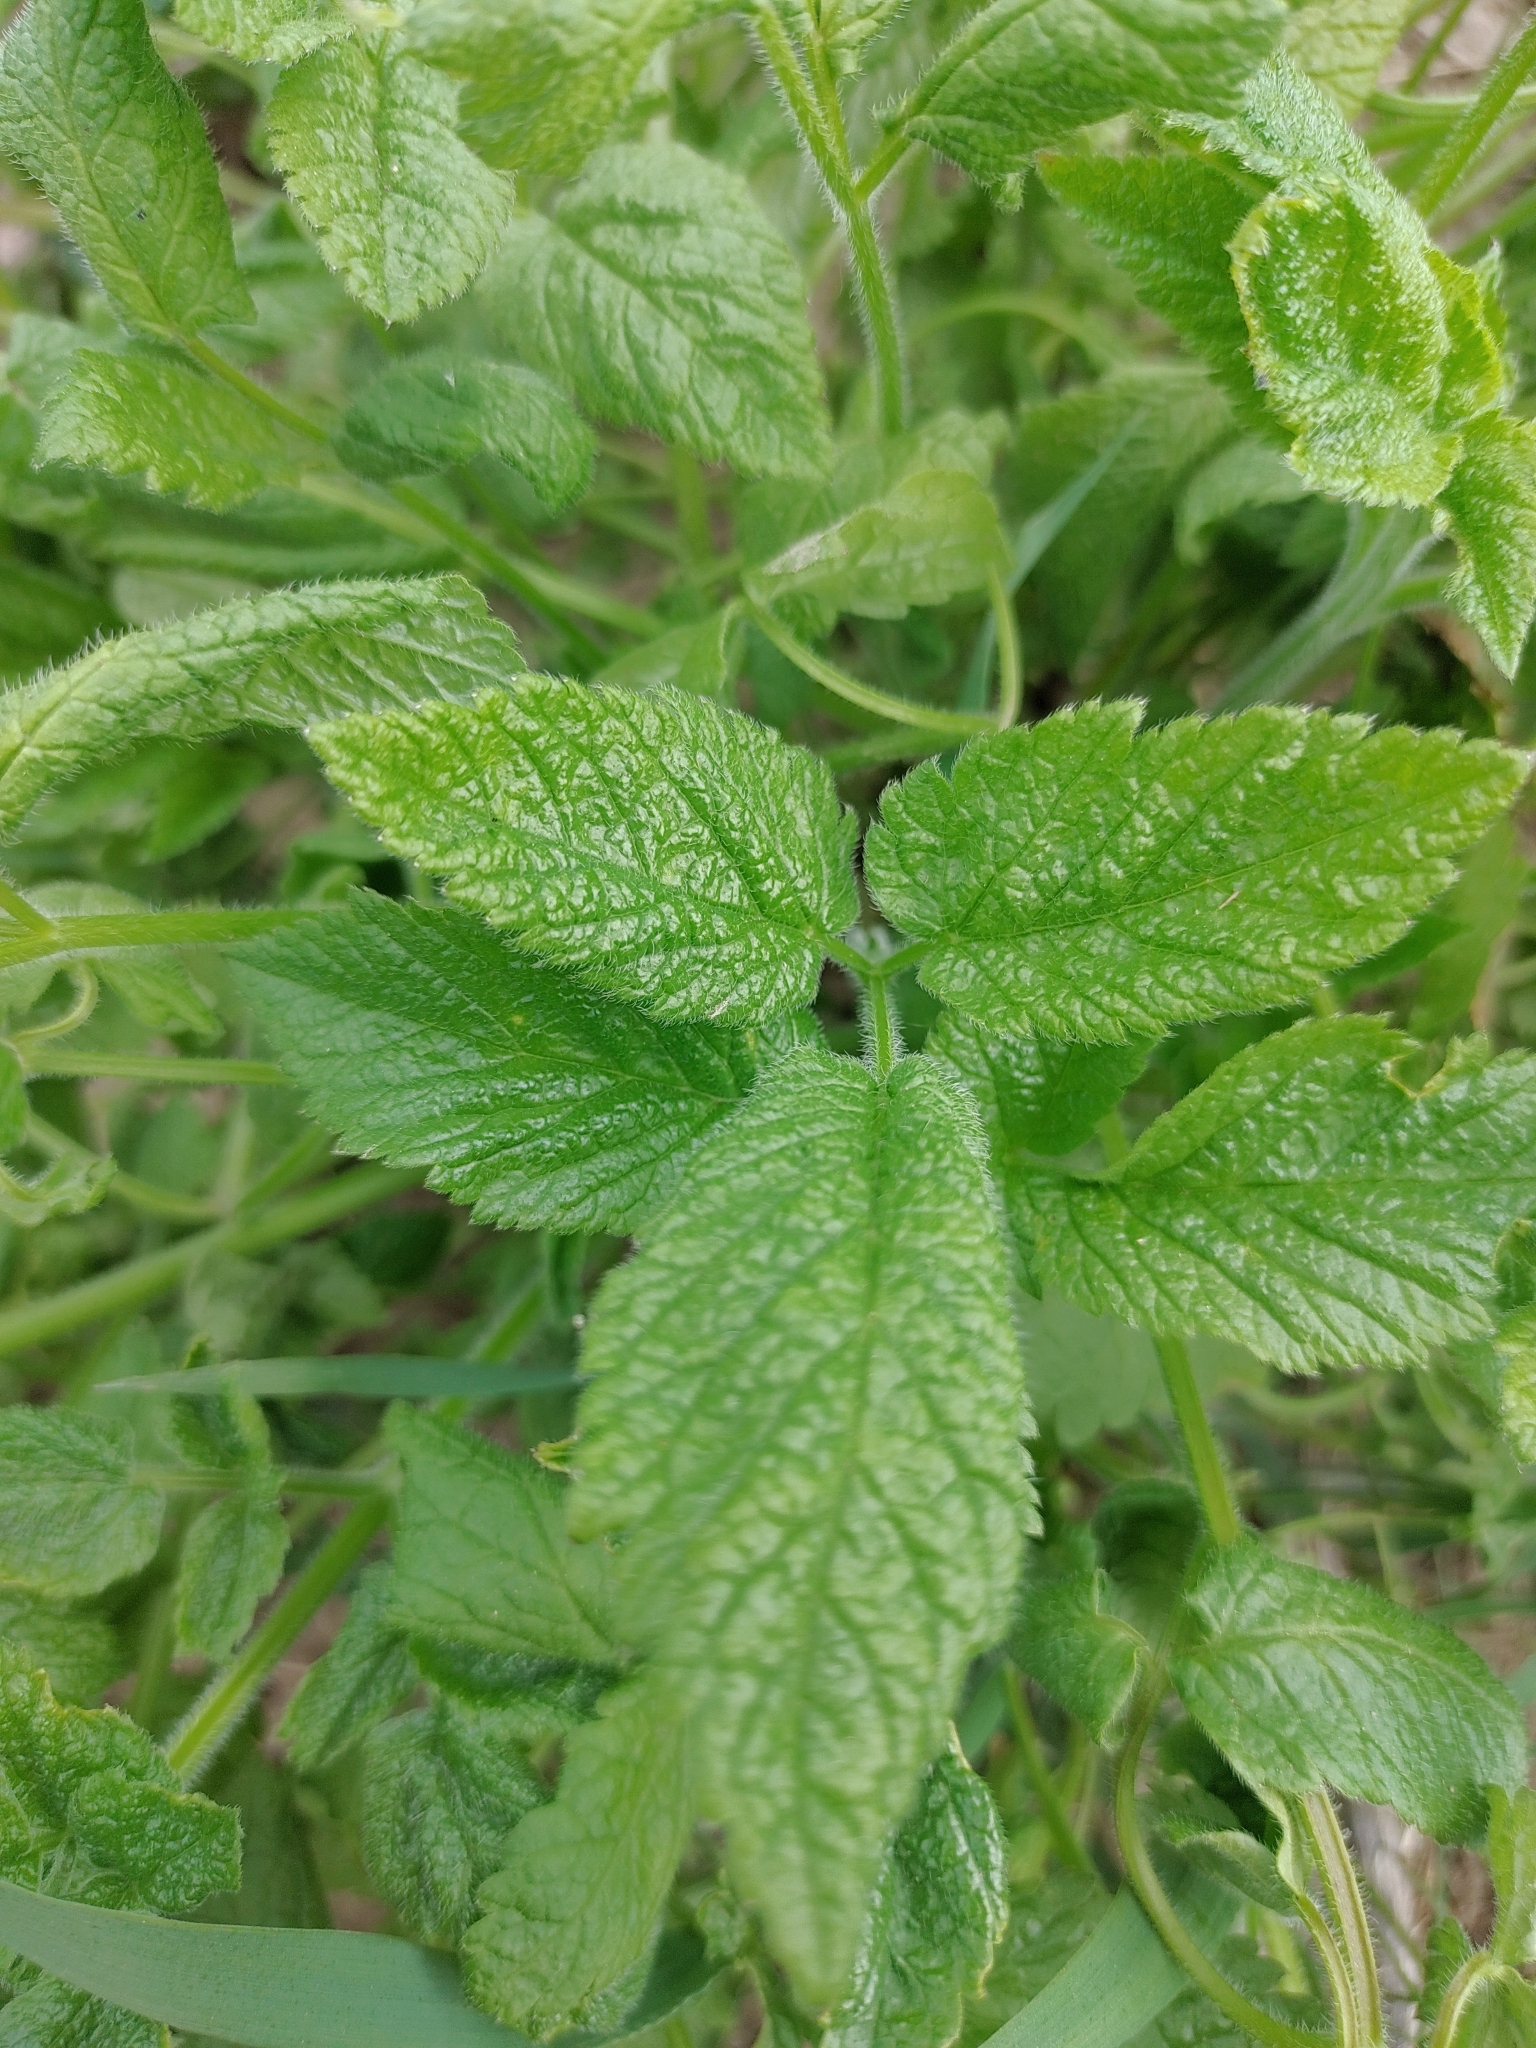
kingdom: Plantae
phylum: Tracheophyta
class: Magnoliopsida
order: Apiales
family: Apiaceae
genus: Aegopodium
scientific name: Aegopodium podagraria
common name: Ground-elder
